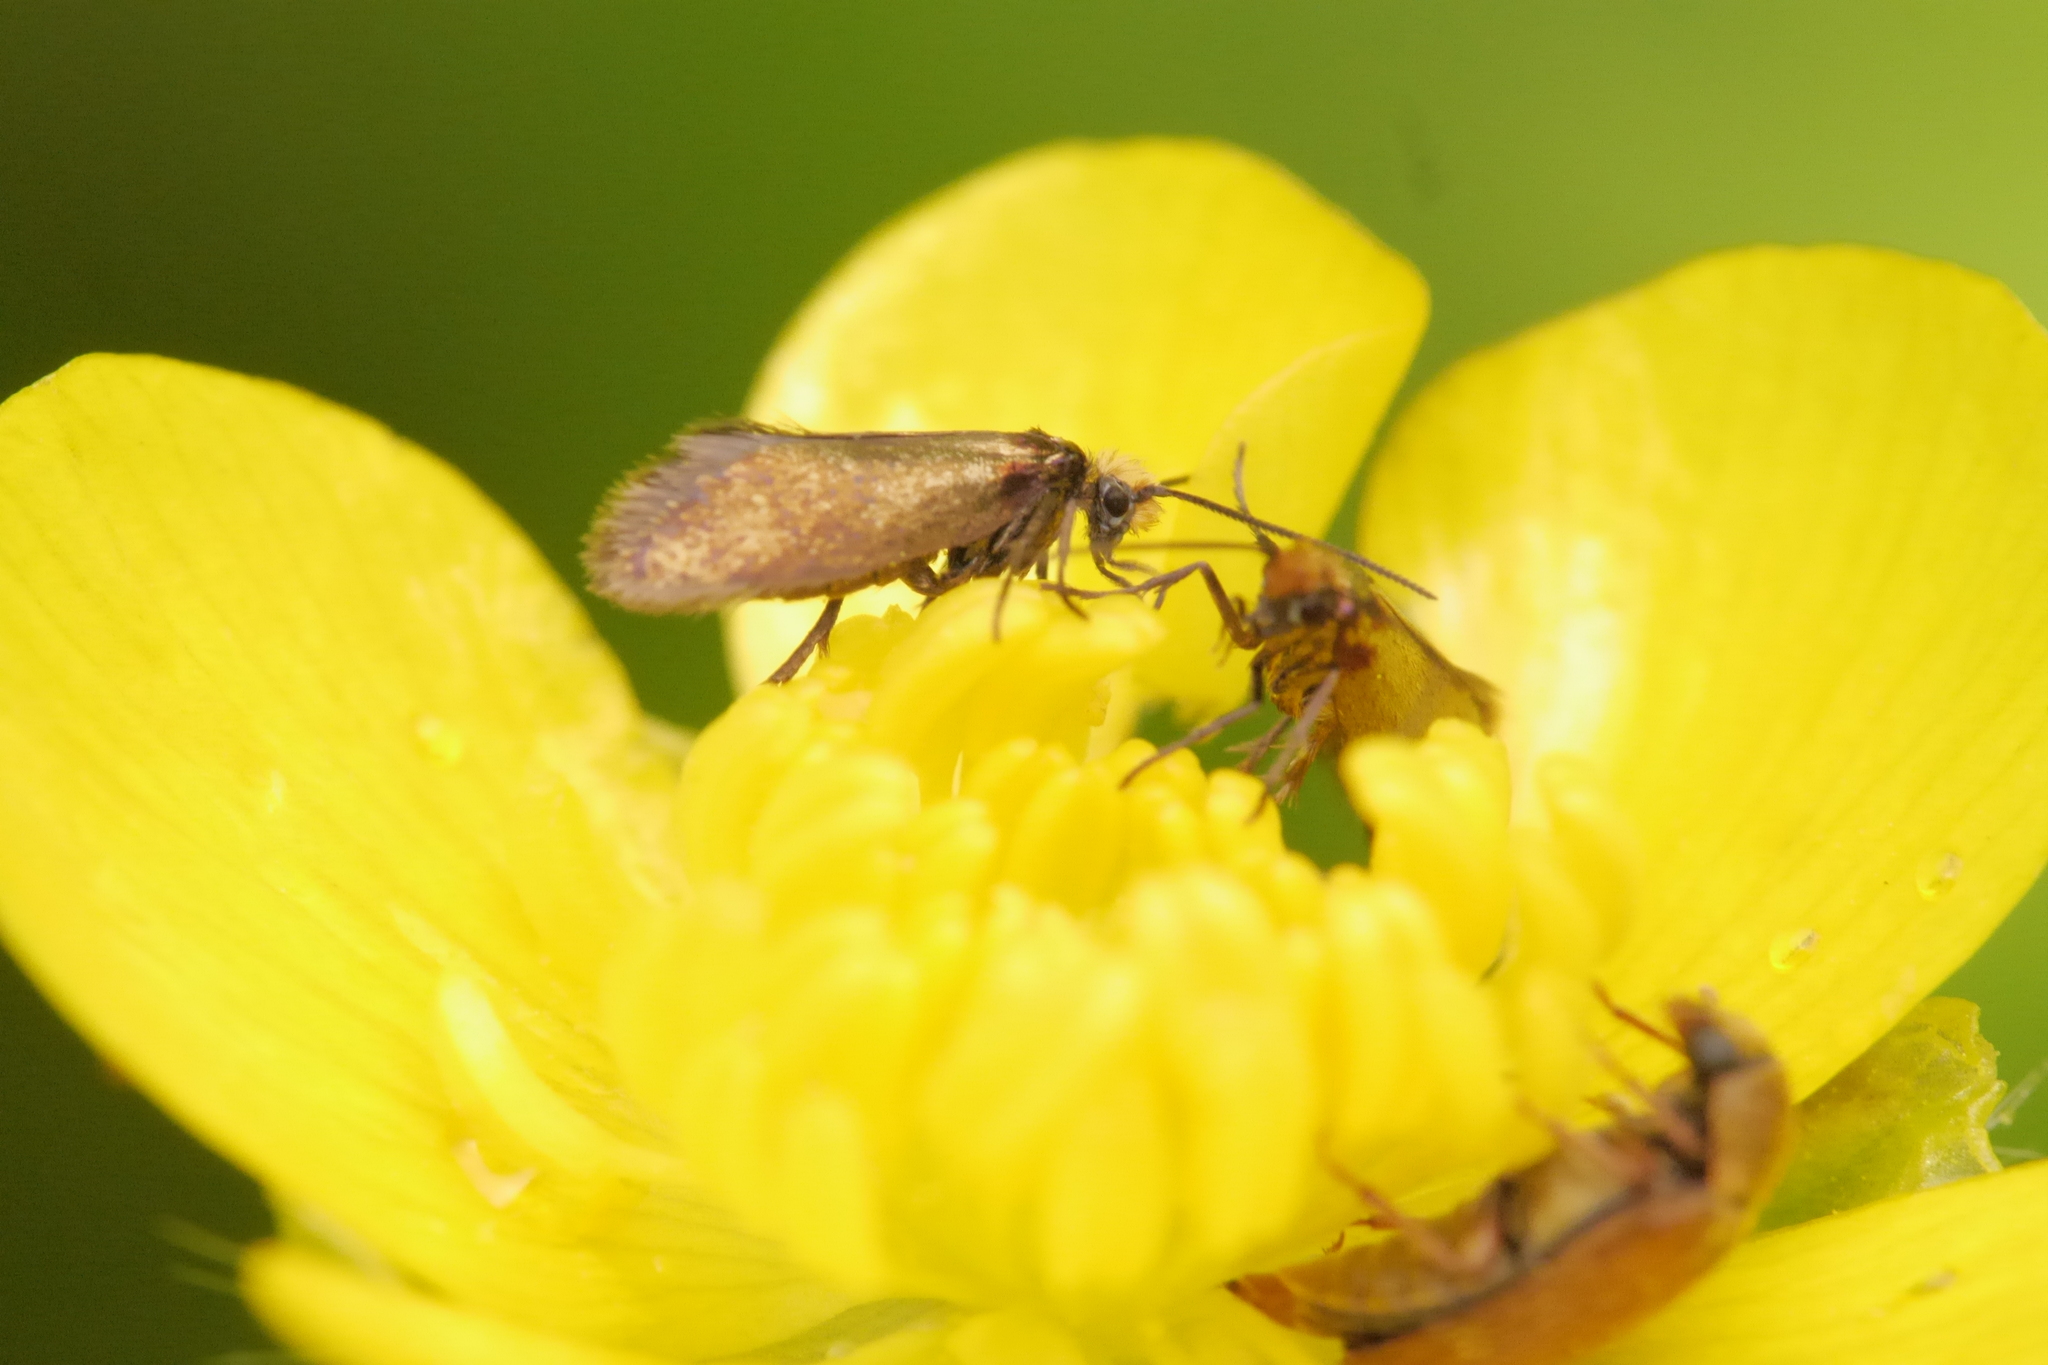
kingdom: Animalia
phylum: Arthropoda
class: Insecta
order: Lepidoptera
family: Micropterigidae
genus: Micropterix
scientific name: Micropterix calthella
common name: Plain gold
